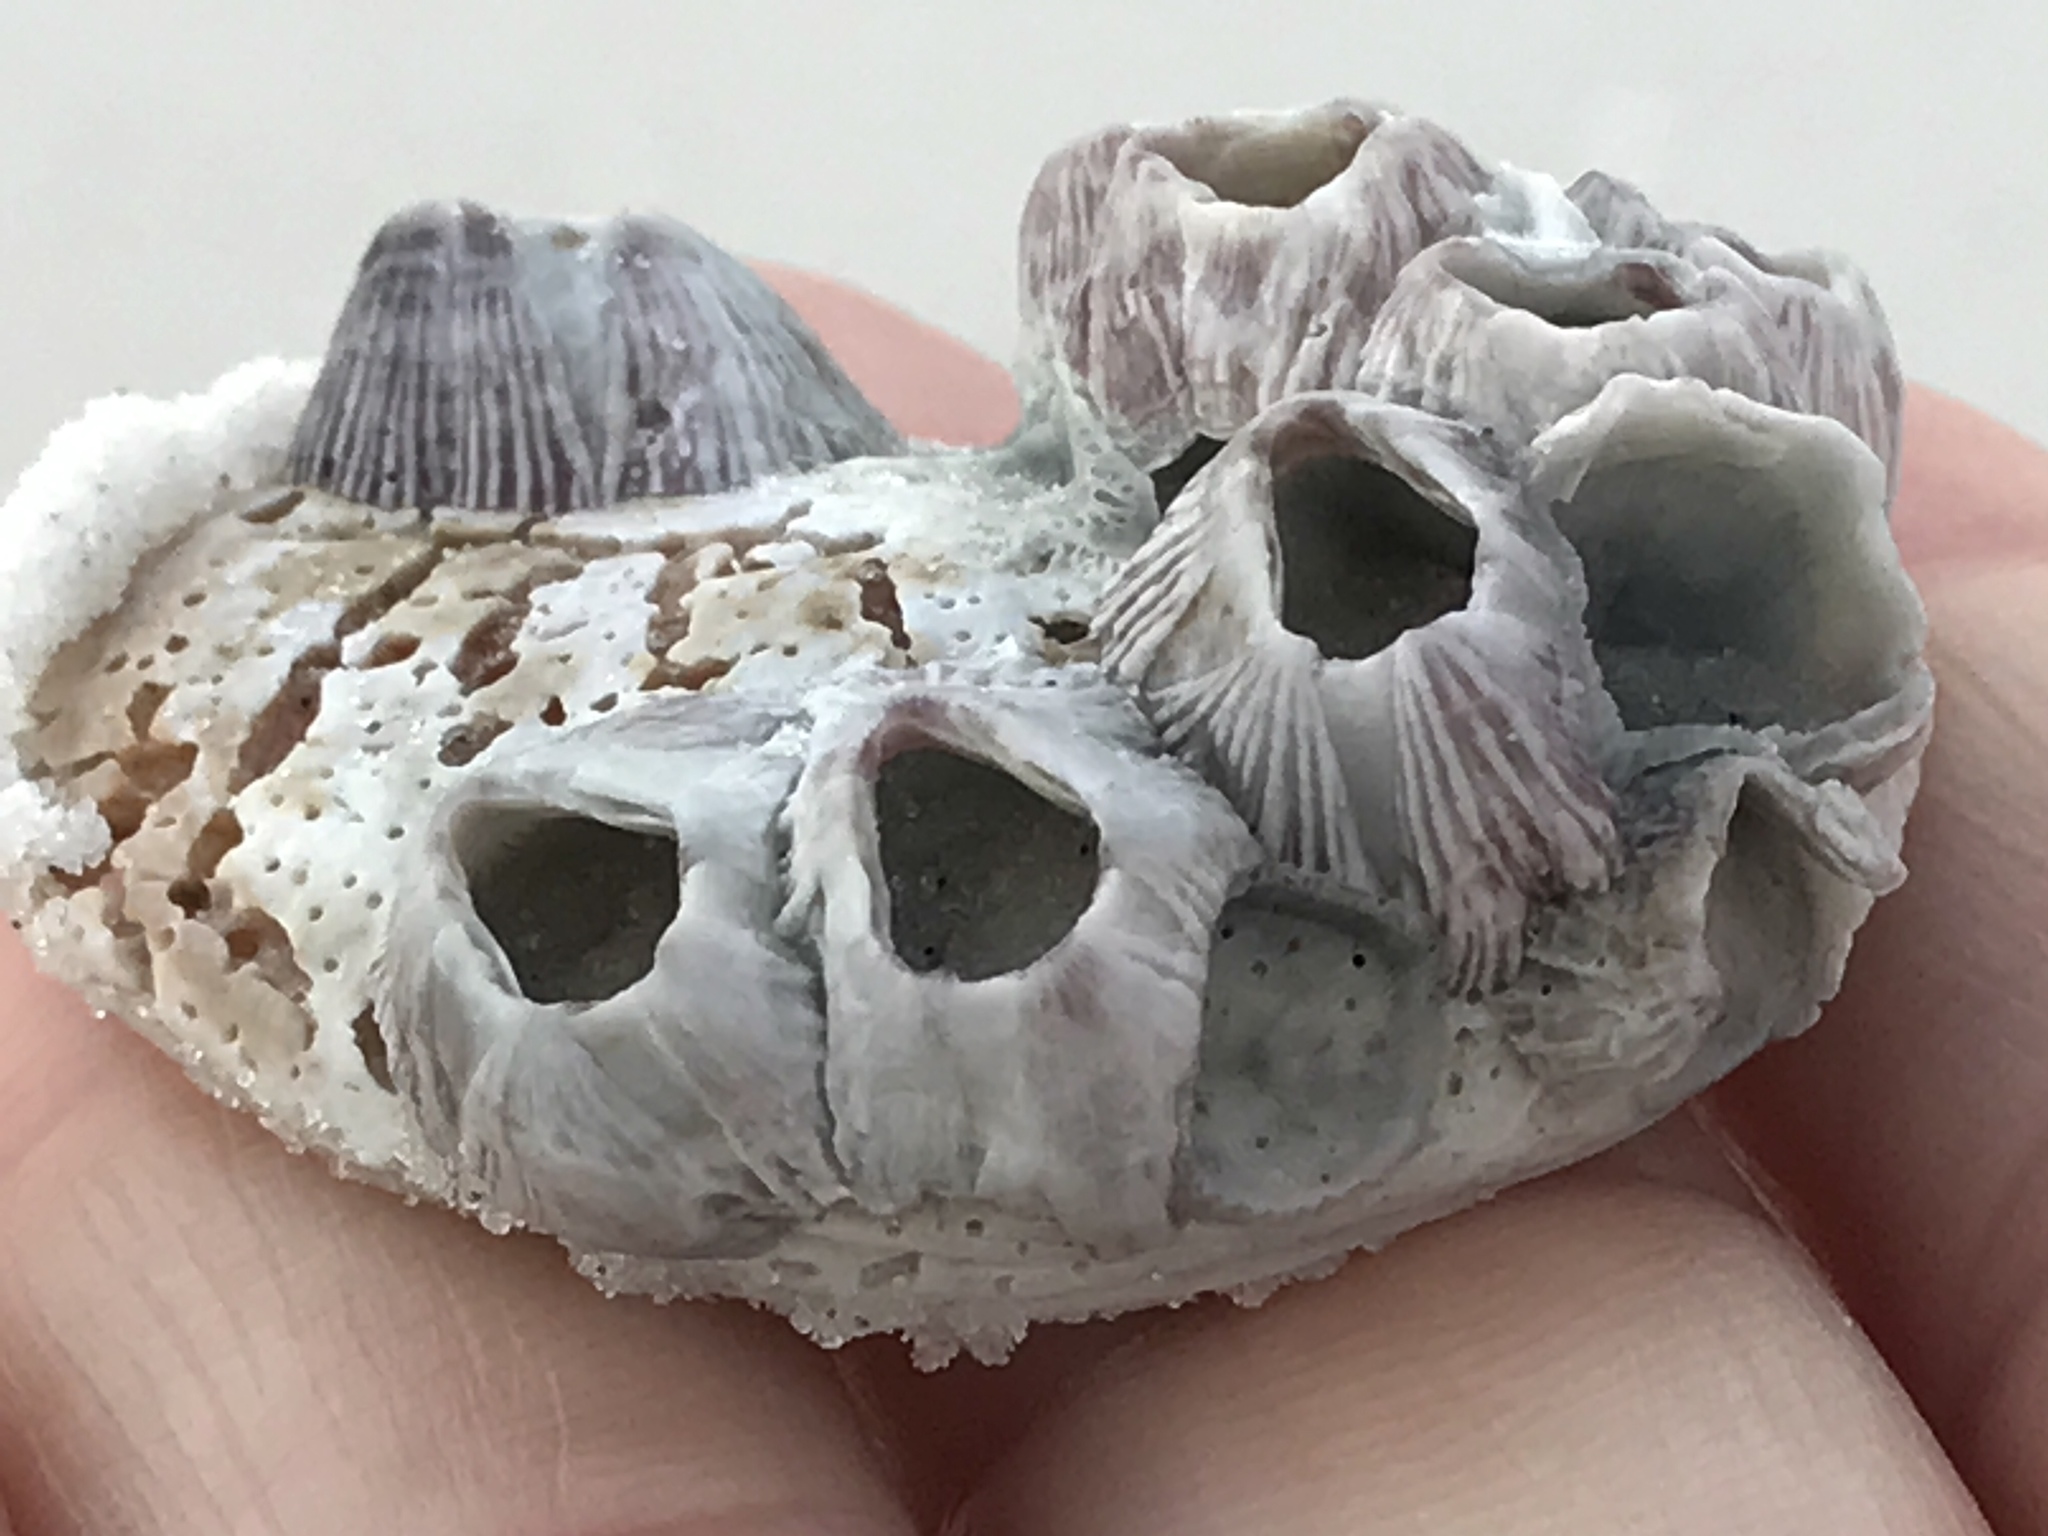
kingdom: Animalia
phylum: Arthropoda
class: Maxillopoda
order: Sessilia
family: Balanidae
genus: Balanus
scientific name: Balanus trigonus
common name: Triangle barnacle
